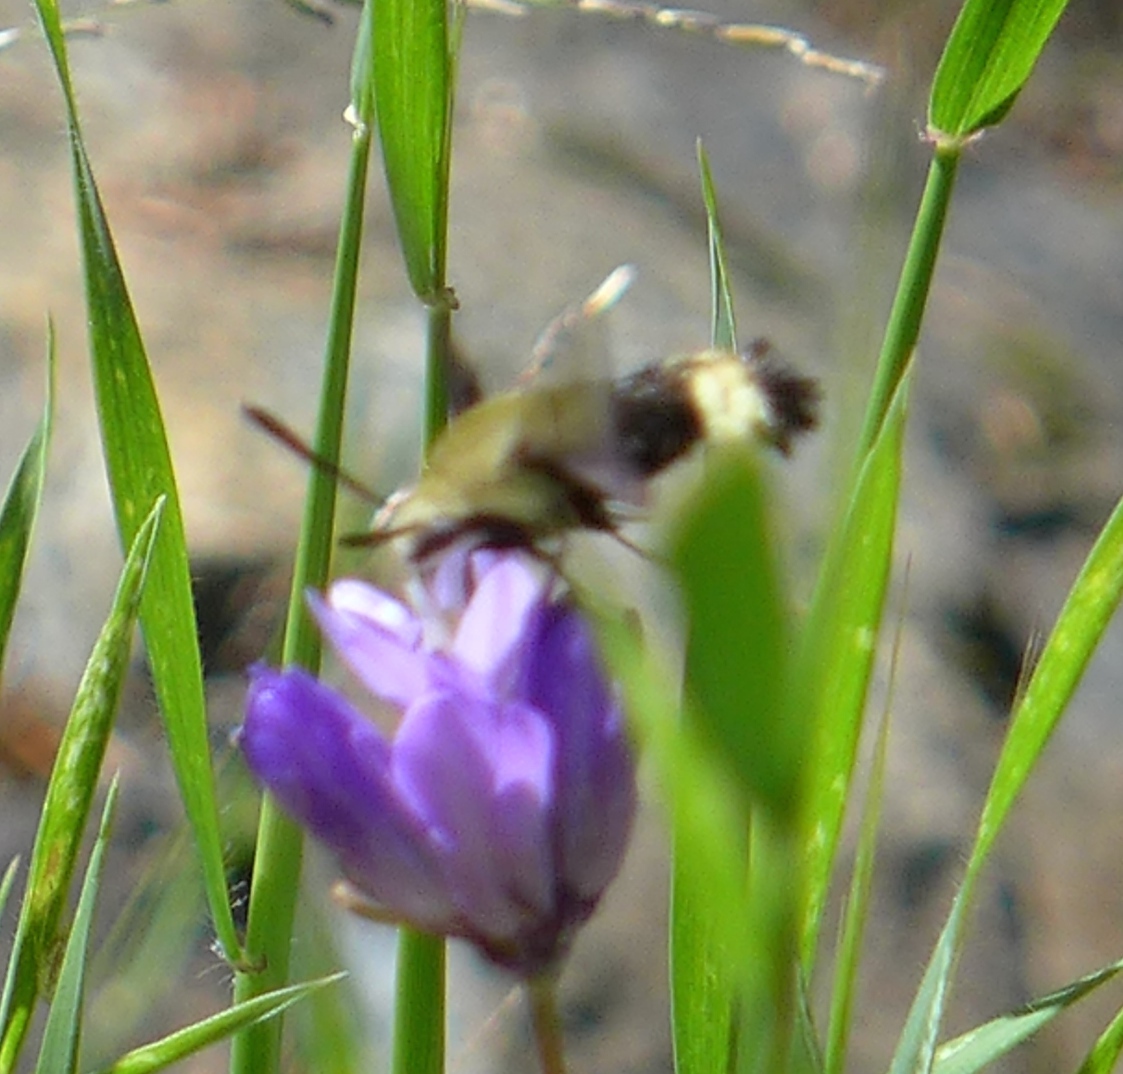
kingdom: Animalia
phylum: Arthropoda
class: Insecta
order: Lepidoptera
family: Sphingidae
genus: Hemaris
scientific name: Hemaris thetis
